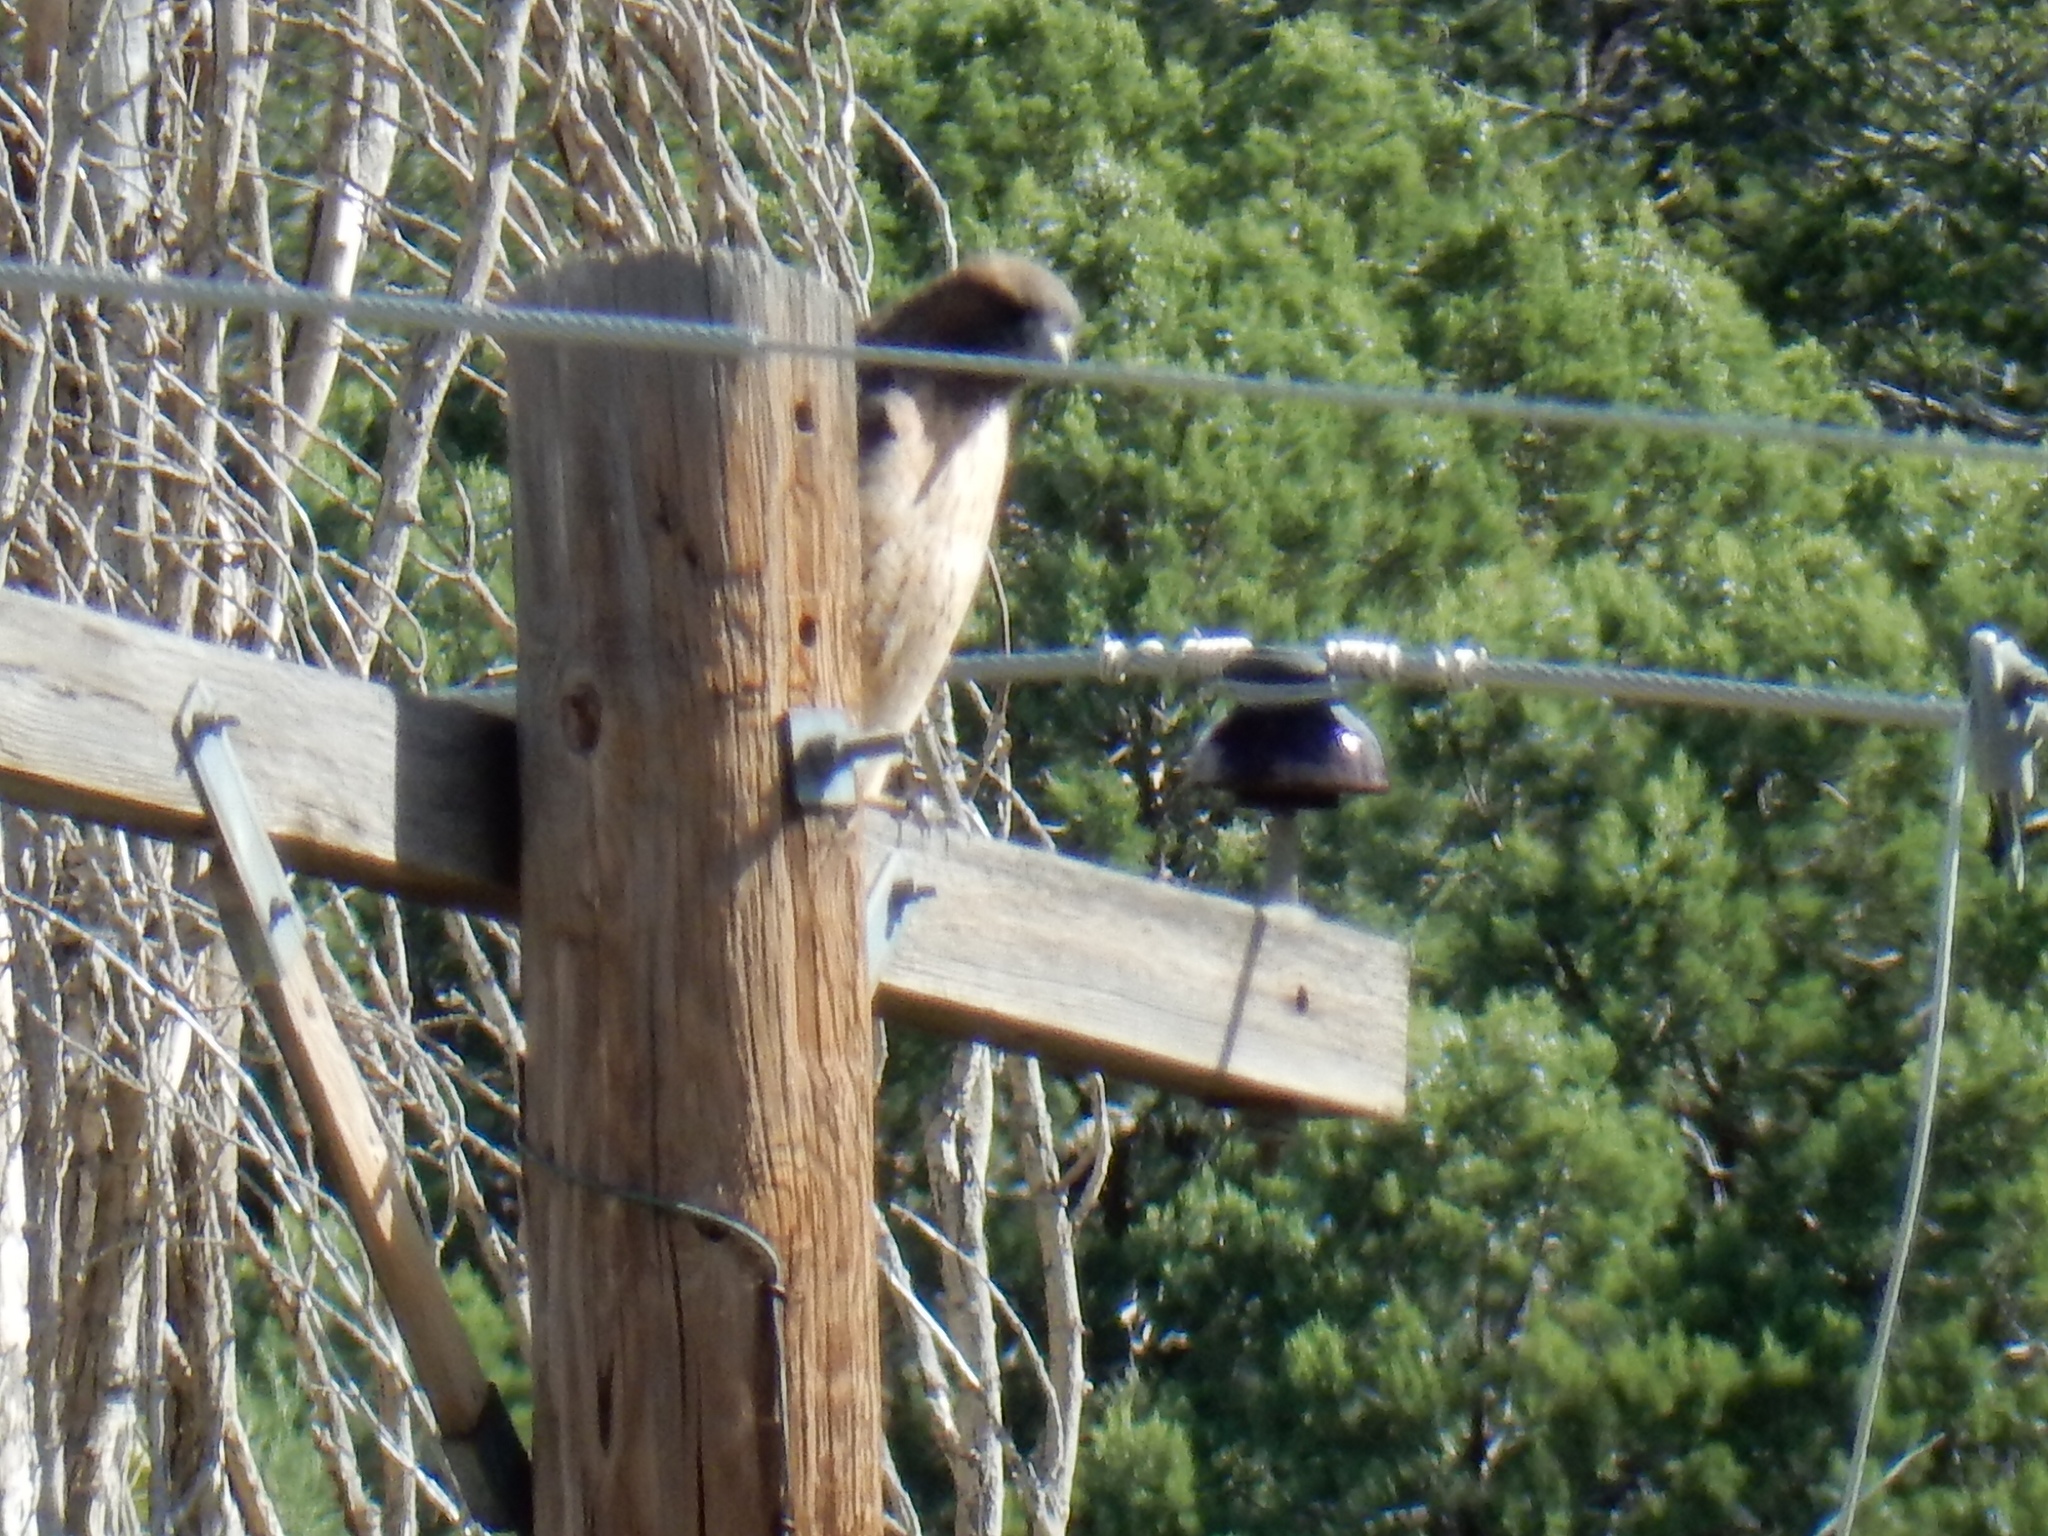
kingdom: Animalia
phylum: Chordata
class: Aves
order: Accipitriformes
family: Accipitridae
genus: Buteo
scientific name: Buteo jamaicensis
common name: Red-tailed hawk
